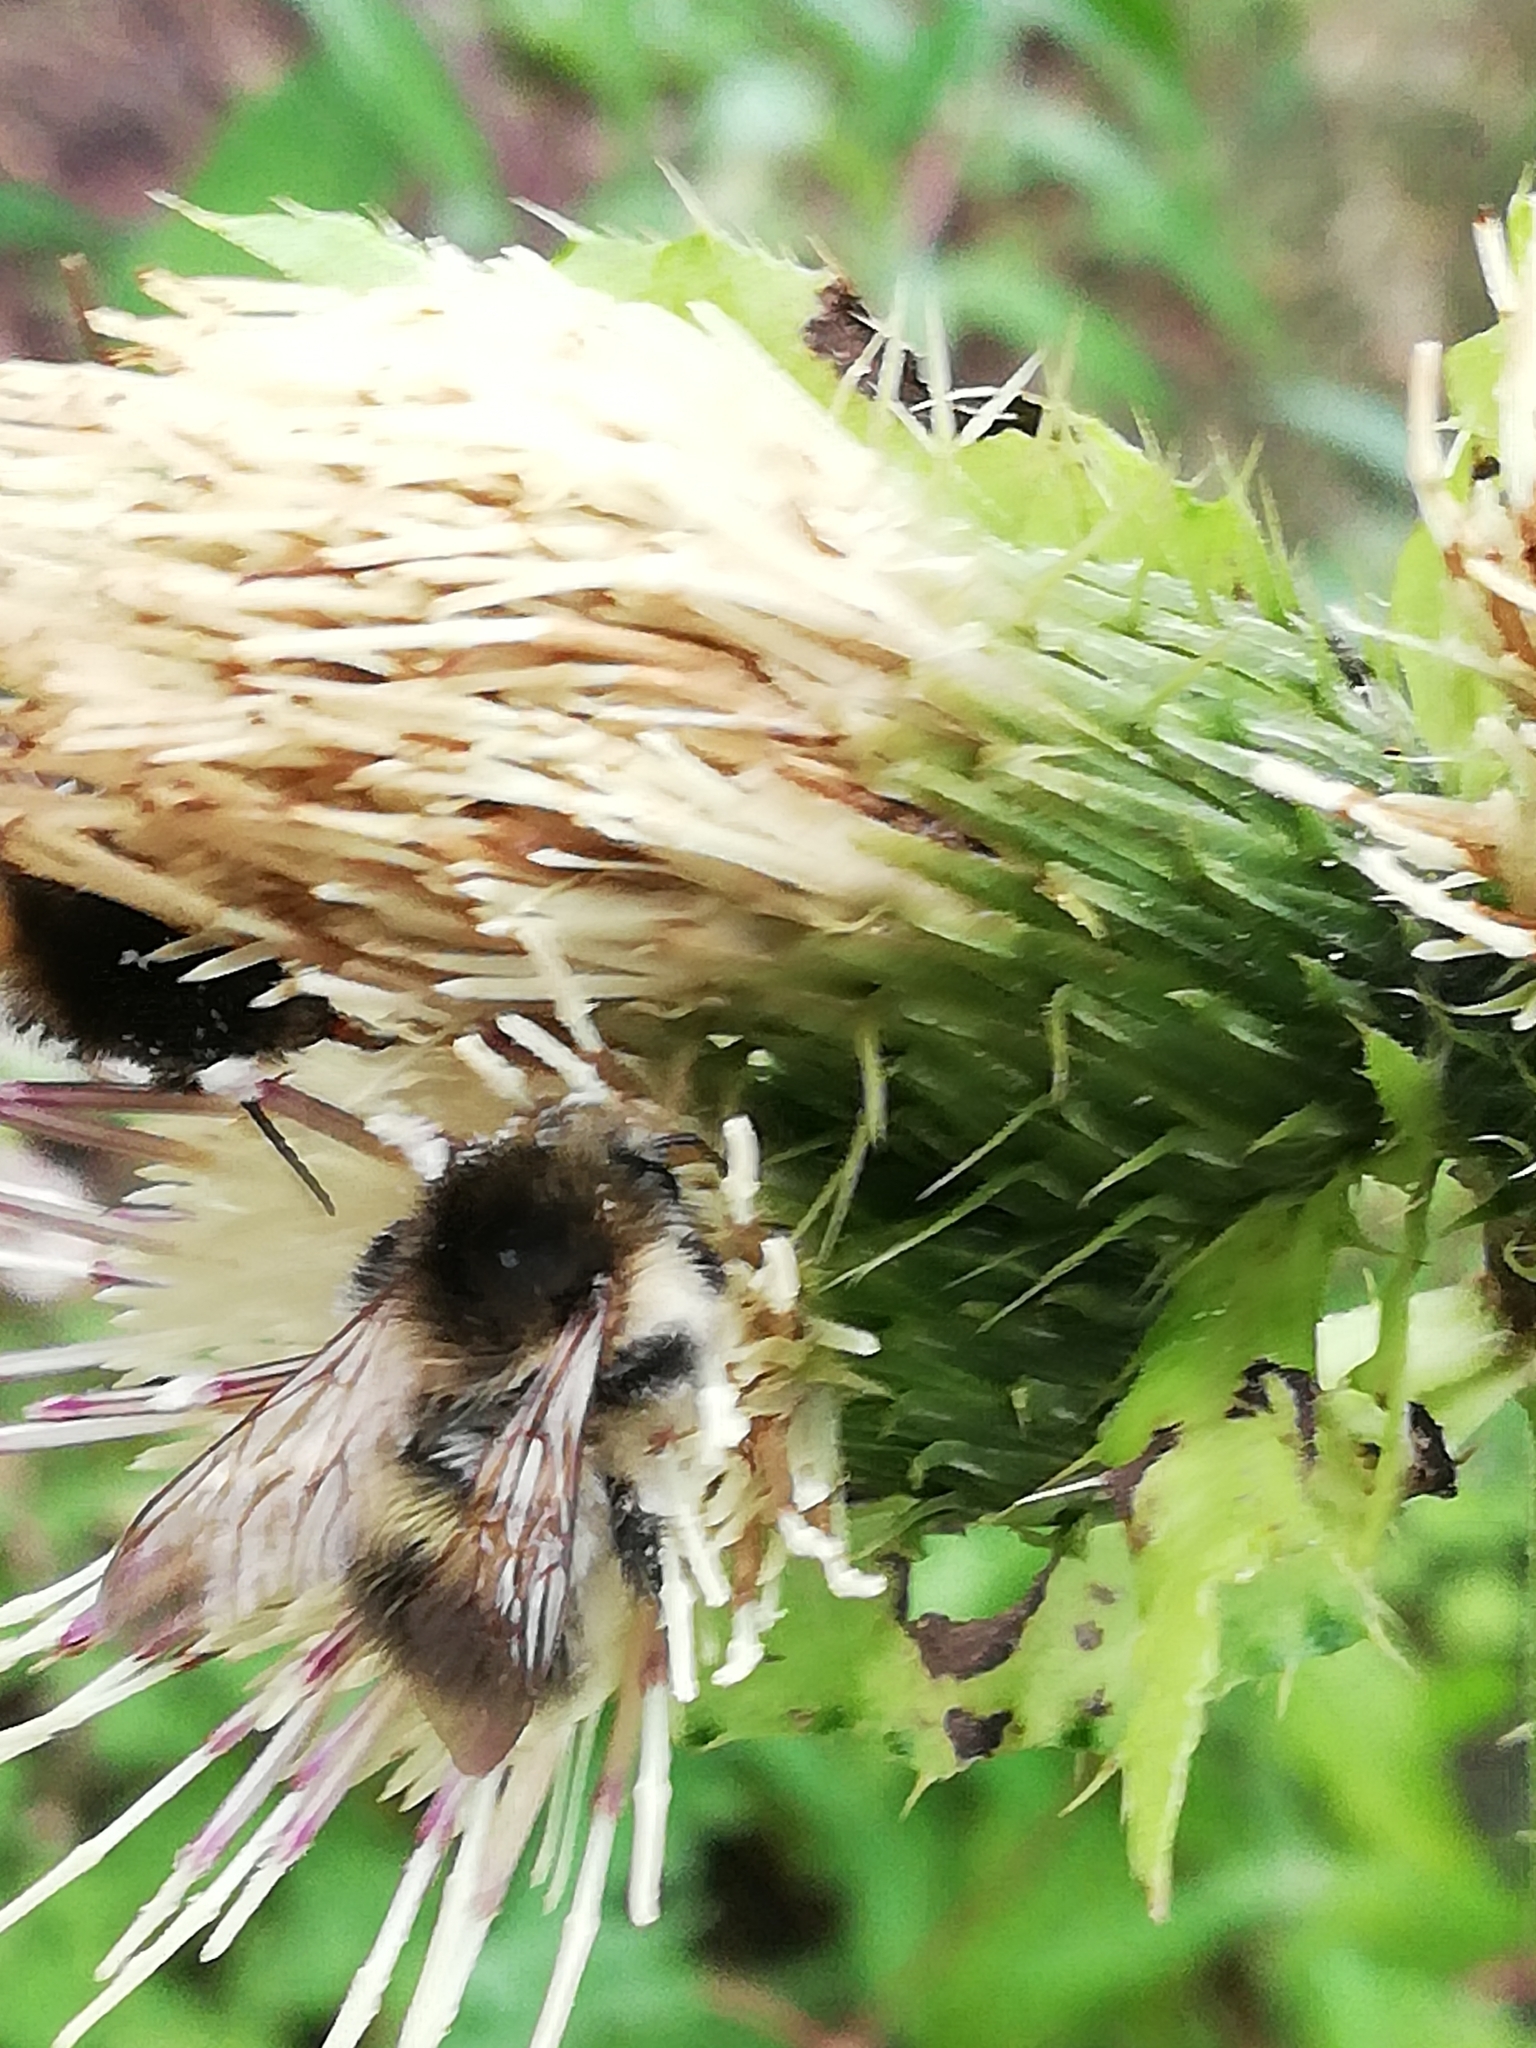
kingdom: Animalia
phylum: Arthropoda
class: Insecta
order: Hymenoptera
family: Apidae
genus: Bombus
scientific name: Bombus pascuorum
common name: Common carder bee
